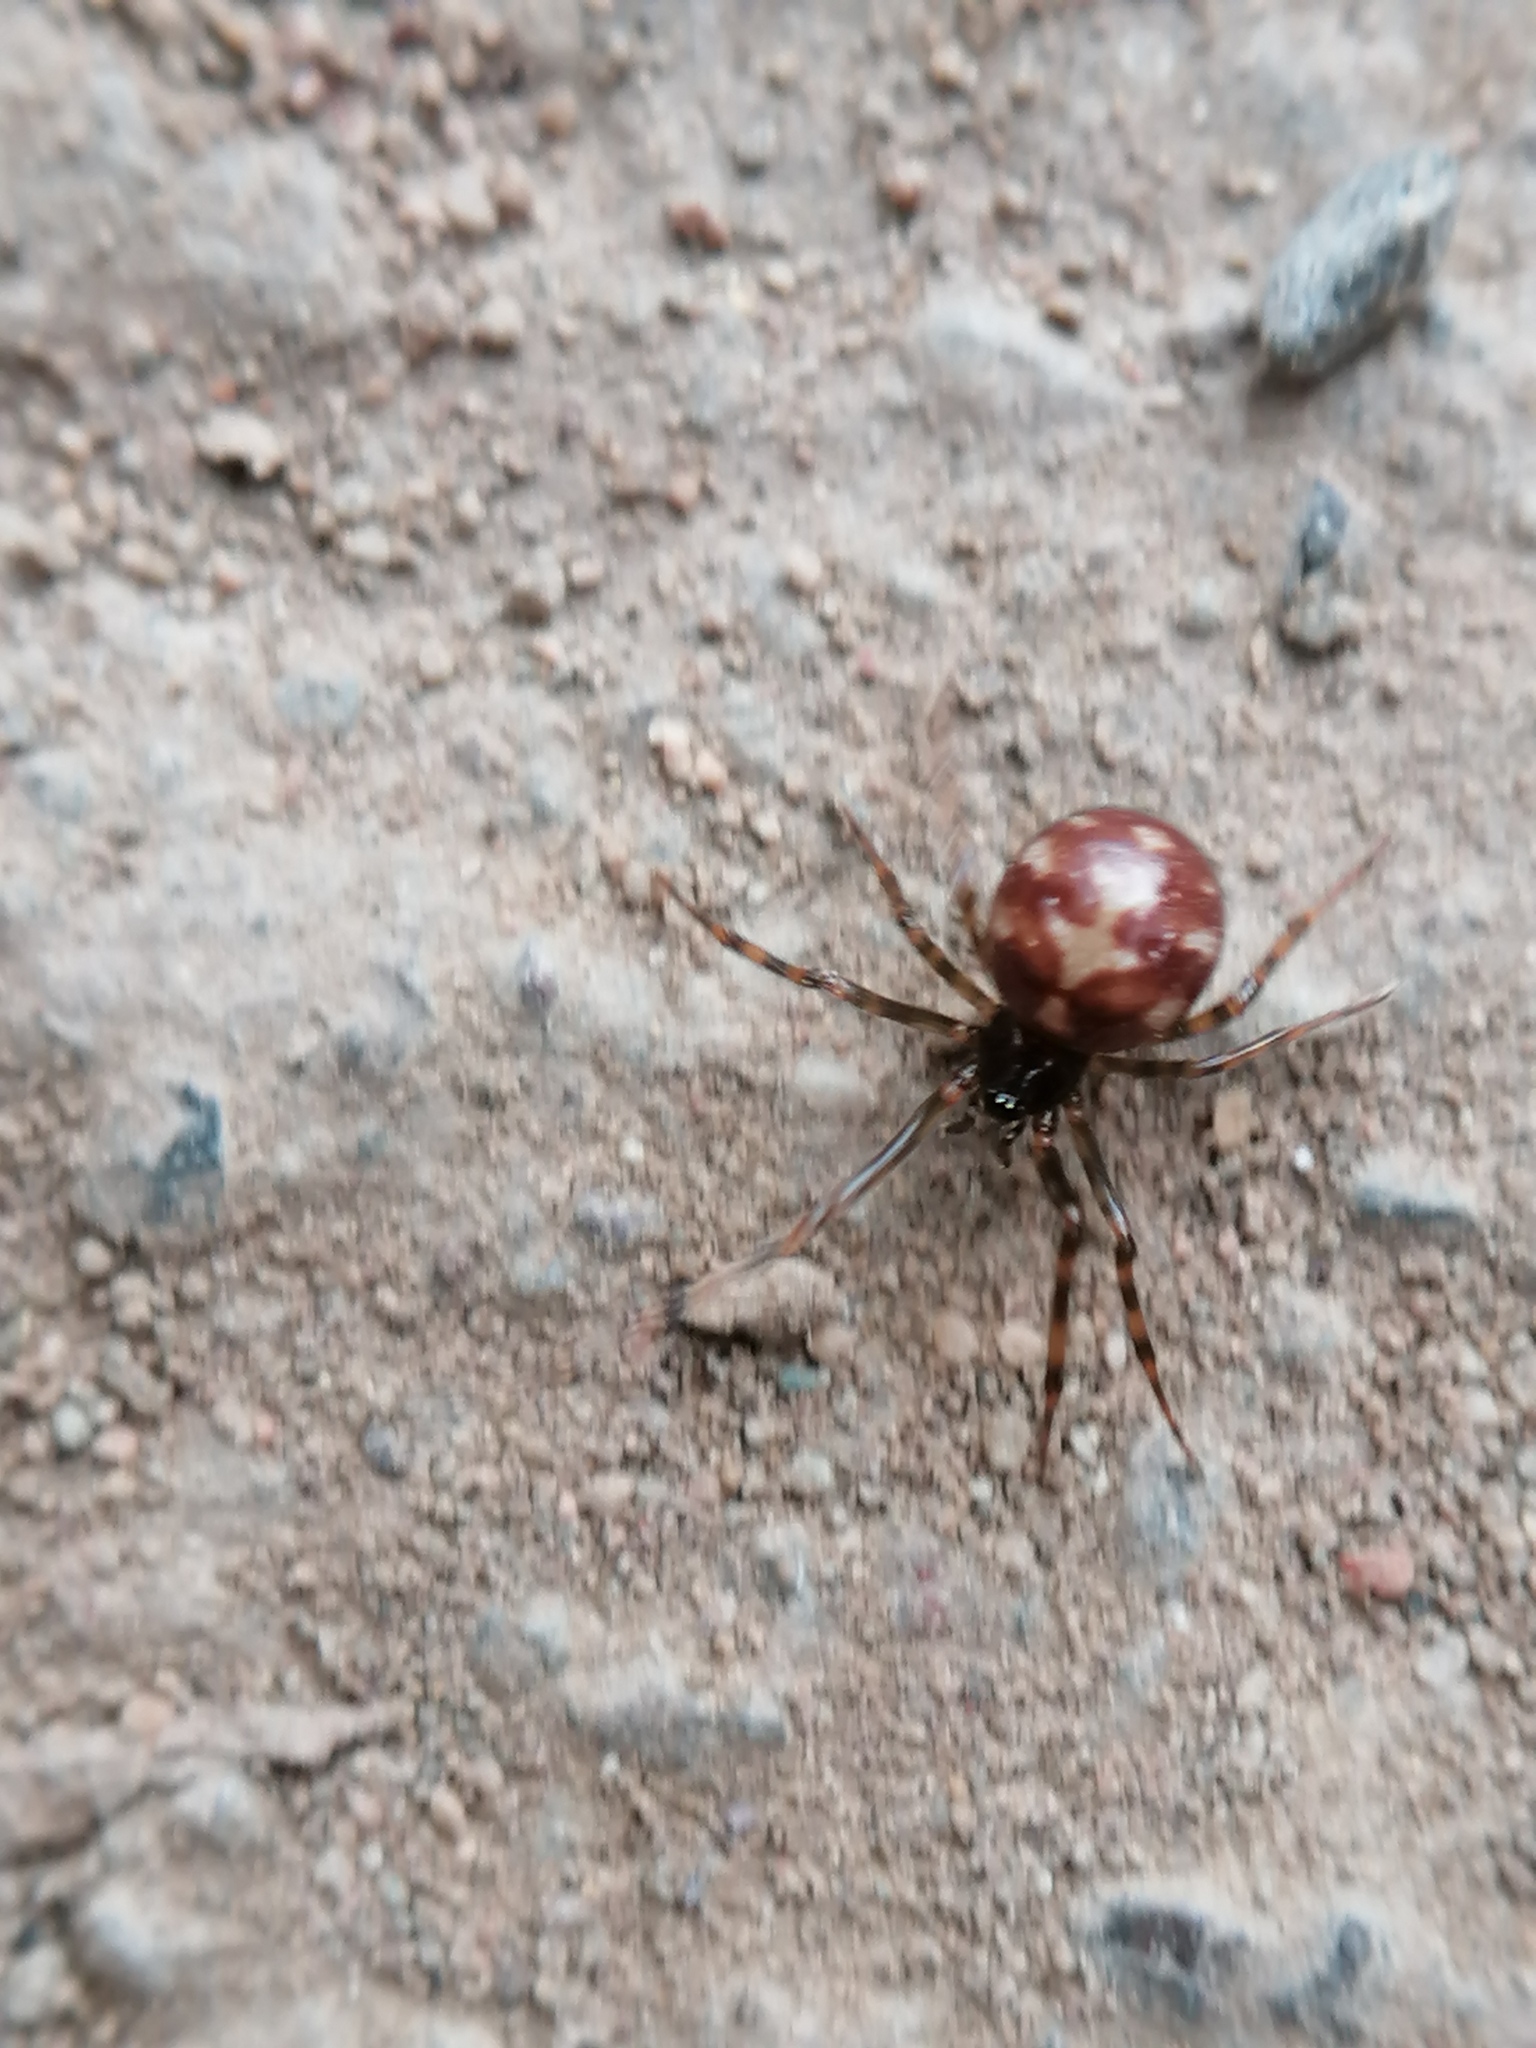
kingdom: Animalia
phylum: Arthropoda
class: Arachnida
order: Araneae
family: Theridiidae
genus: Steatoda
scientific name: Steatoda triangulosa
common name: Triangulate bud spider
